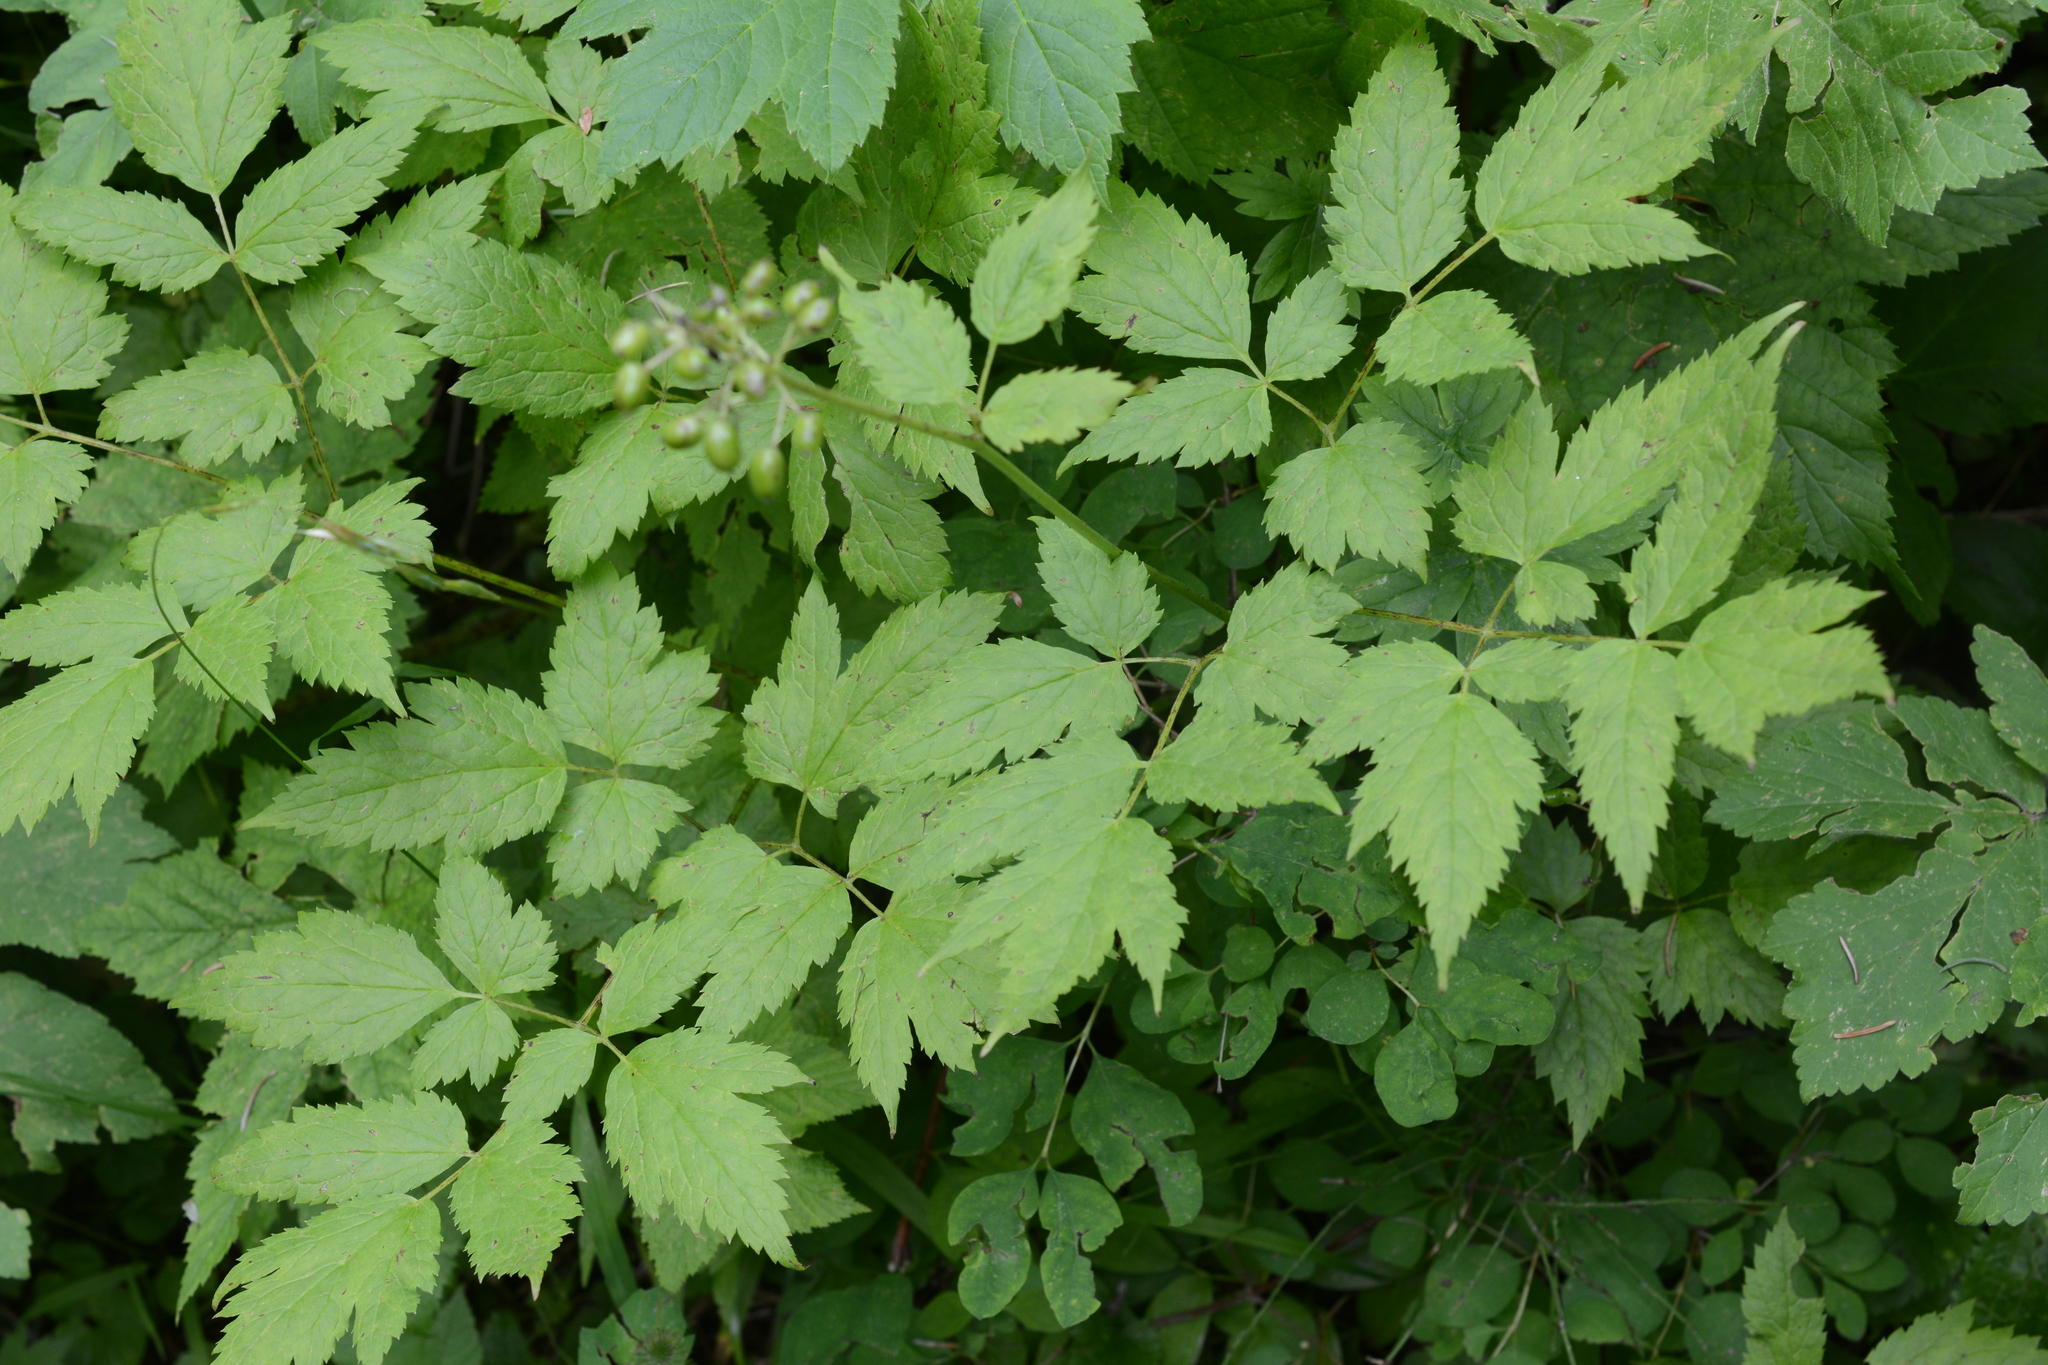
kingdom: Plantae
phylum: Tracheophyta
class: Magnoliopsida
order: Ranunculales
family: Ranunculaceae
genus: Actaea
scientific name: Actaea rubra
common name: Red baneberry
